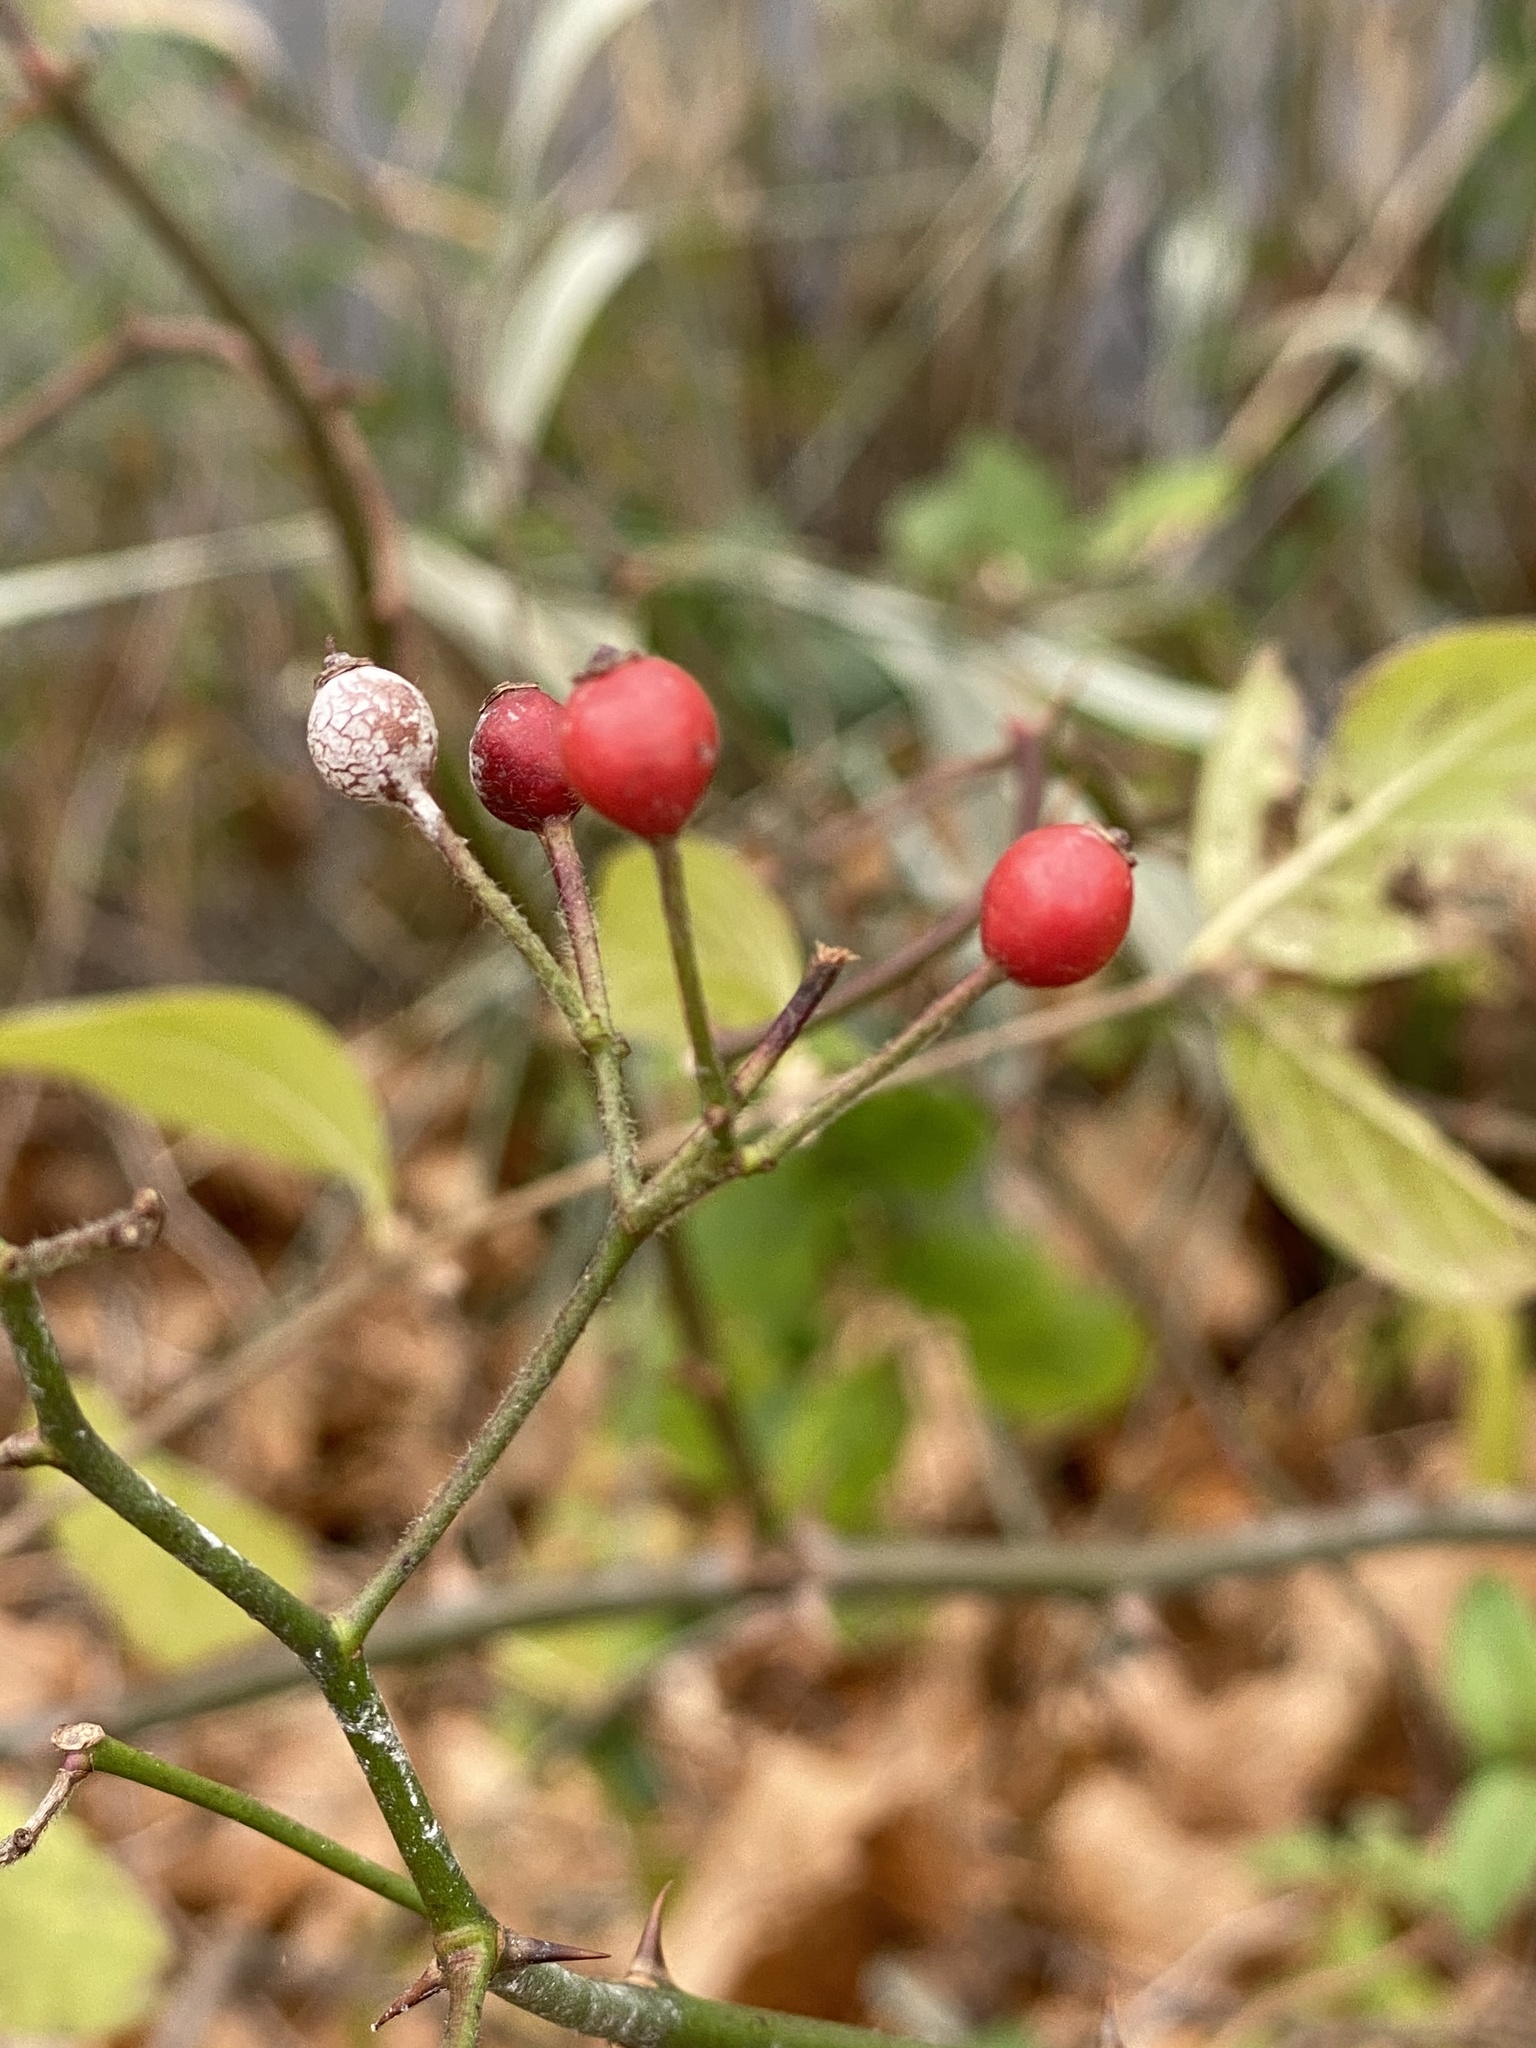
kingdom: Plantae
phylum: Tracheophyta
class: Magnoliopsida
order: Rosales
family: Rosaceae
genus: Rosa
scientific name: Rosa multiflora
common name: Multiflora rose
